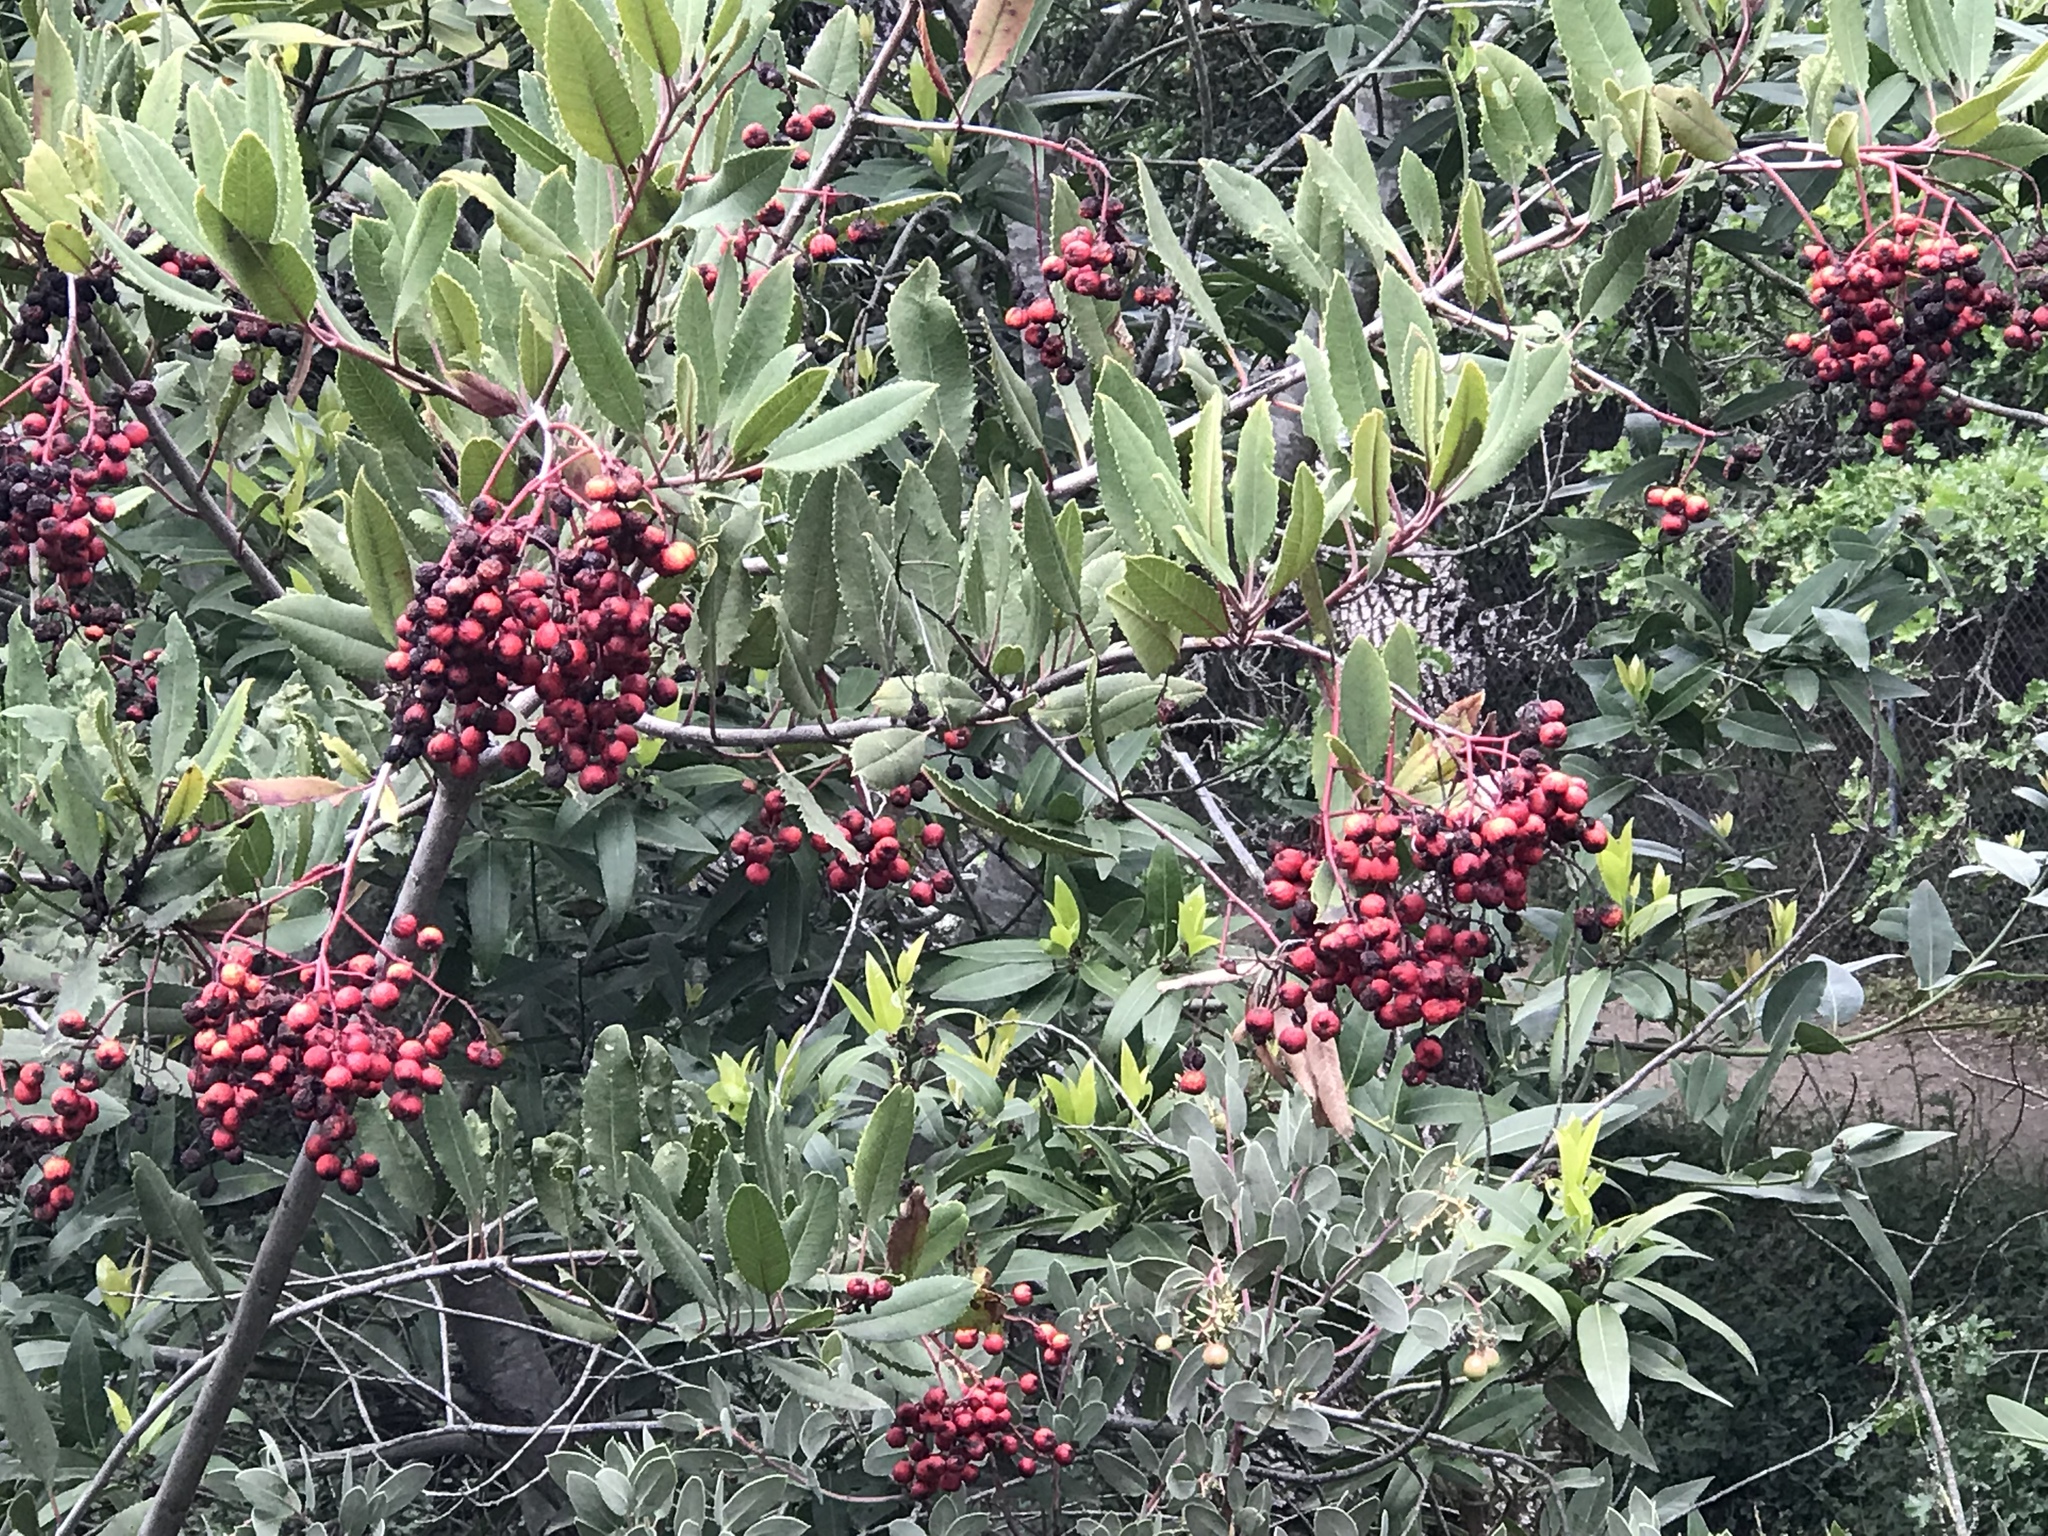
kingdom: Plantae
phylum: Tracheophyta
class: Magnoliopsida
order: Rosales
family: Rosaceae
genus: Heteromeles
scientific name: Heteromeles arbutifolia
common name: California-holly
